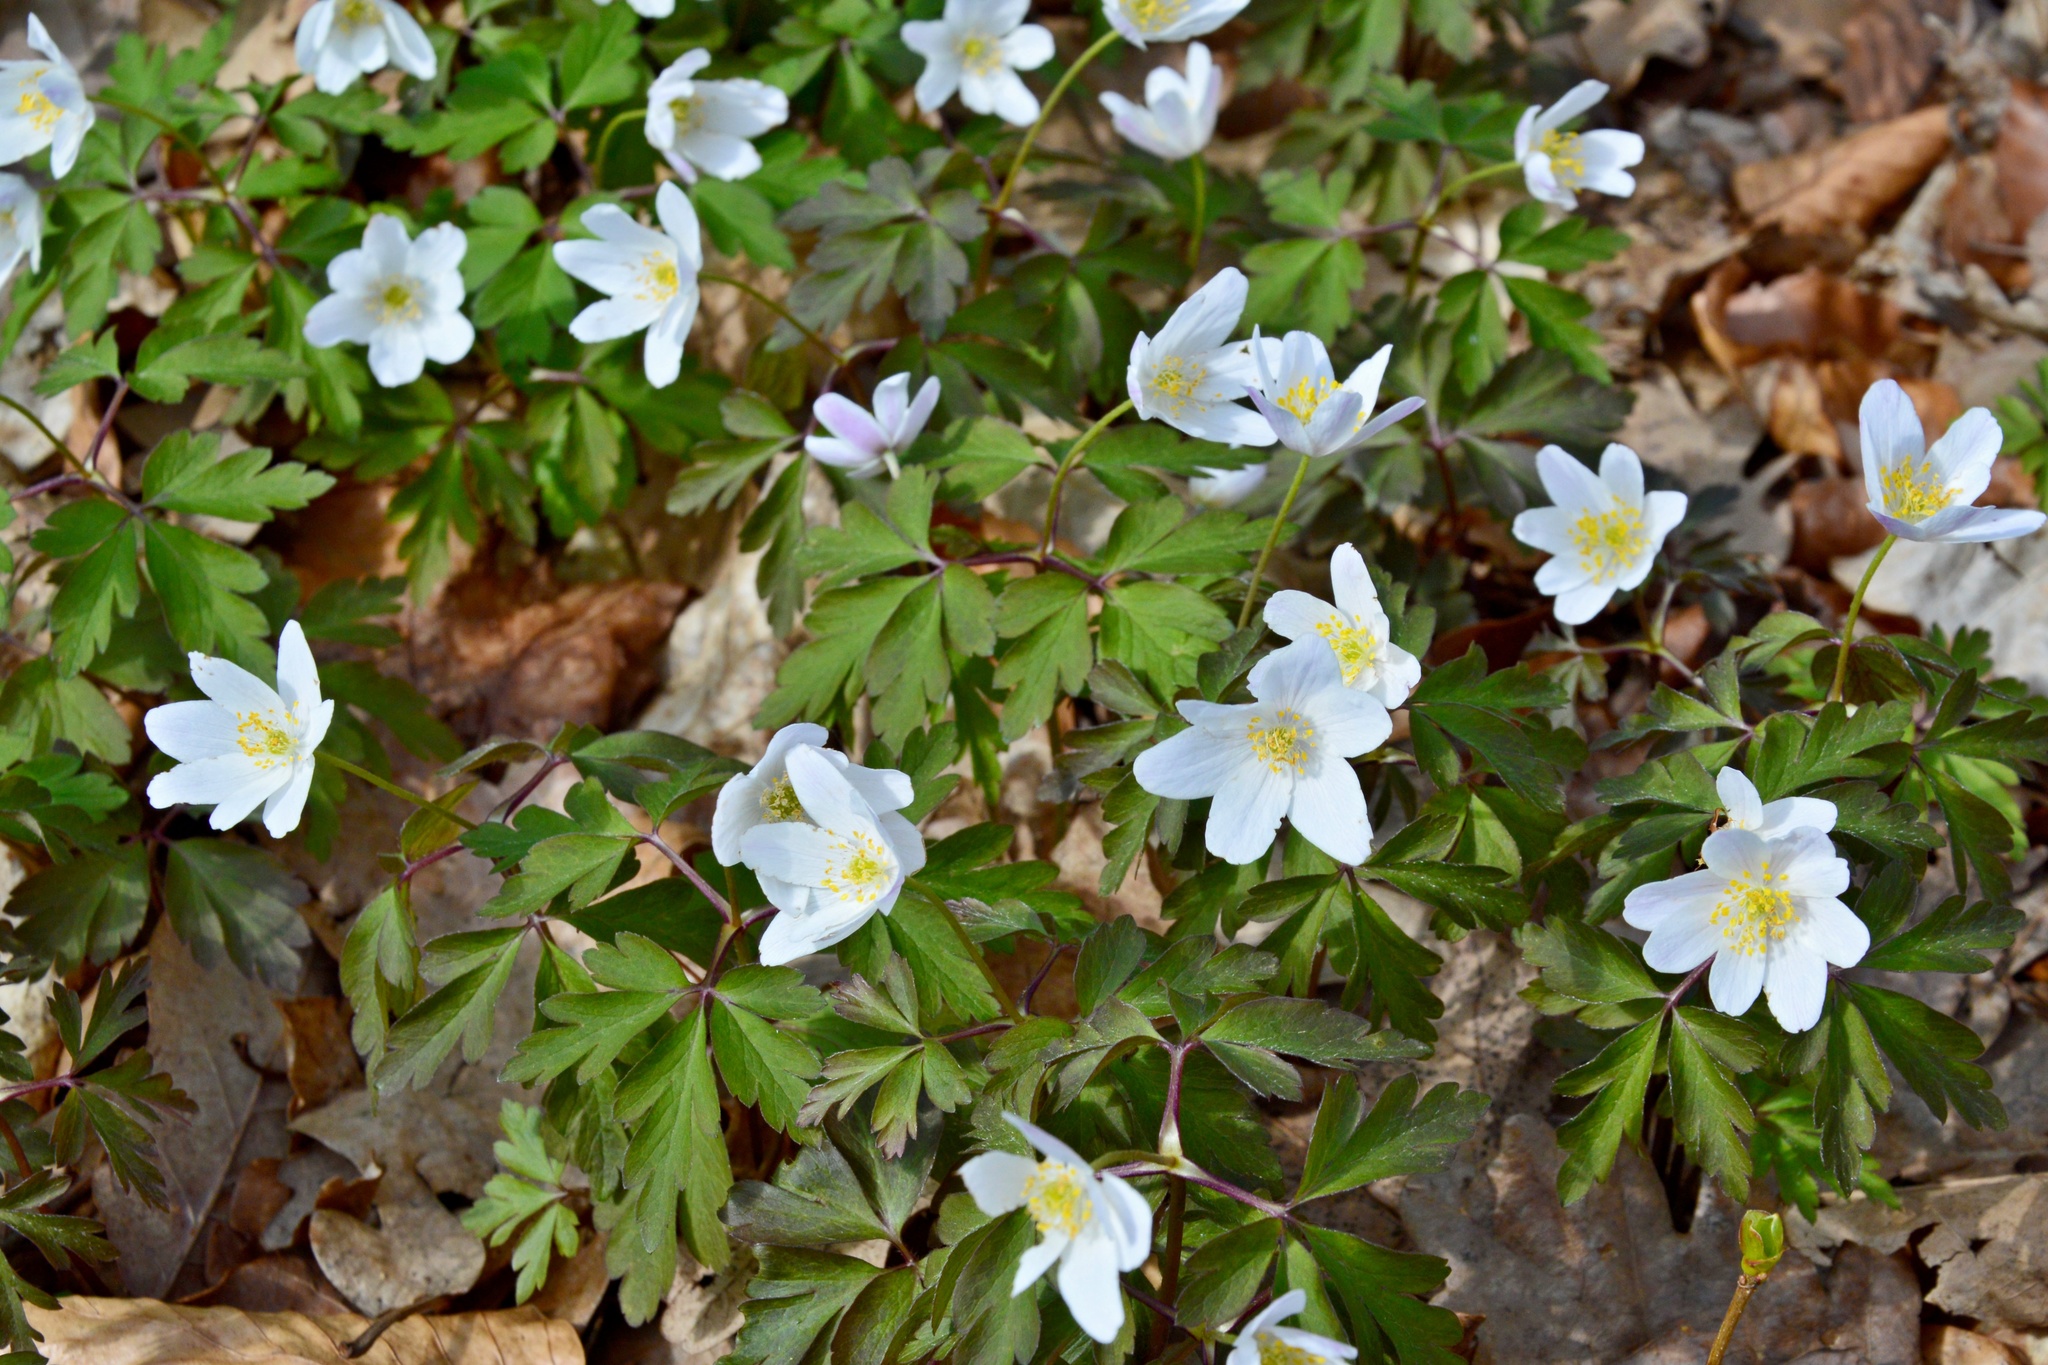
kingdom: Plantae
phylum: Tracheophyta
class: Magnoliopsida
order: Ranunculales
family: Ranunculaceae
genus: Anemone
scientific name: Anemone nemorosa
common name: Wood anemone
